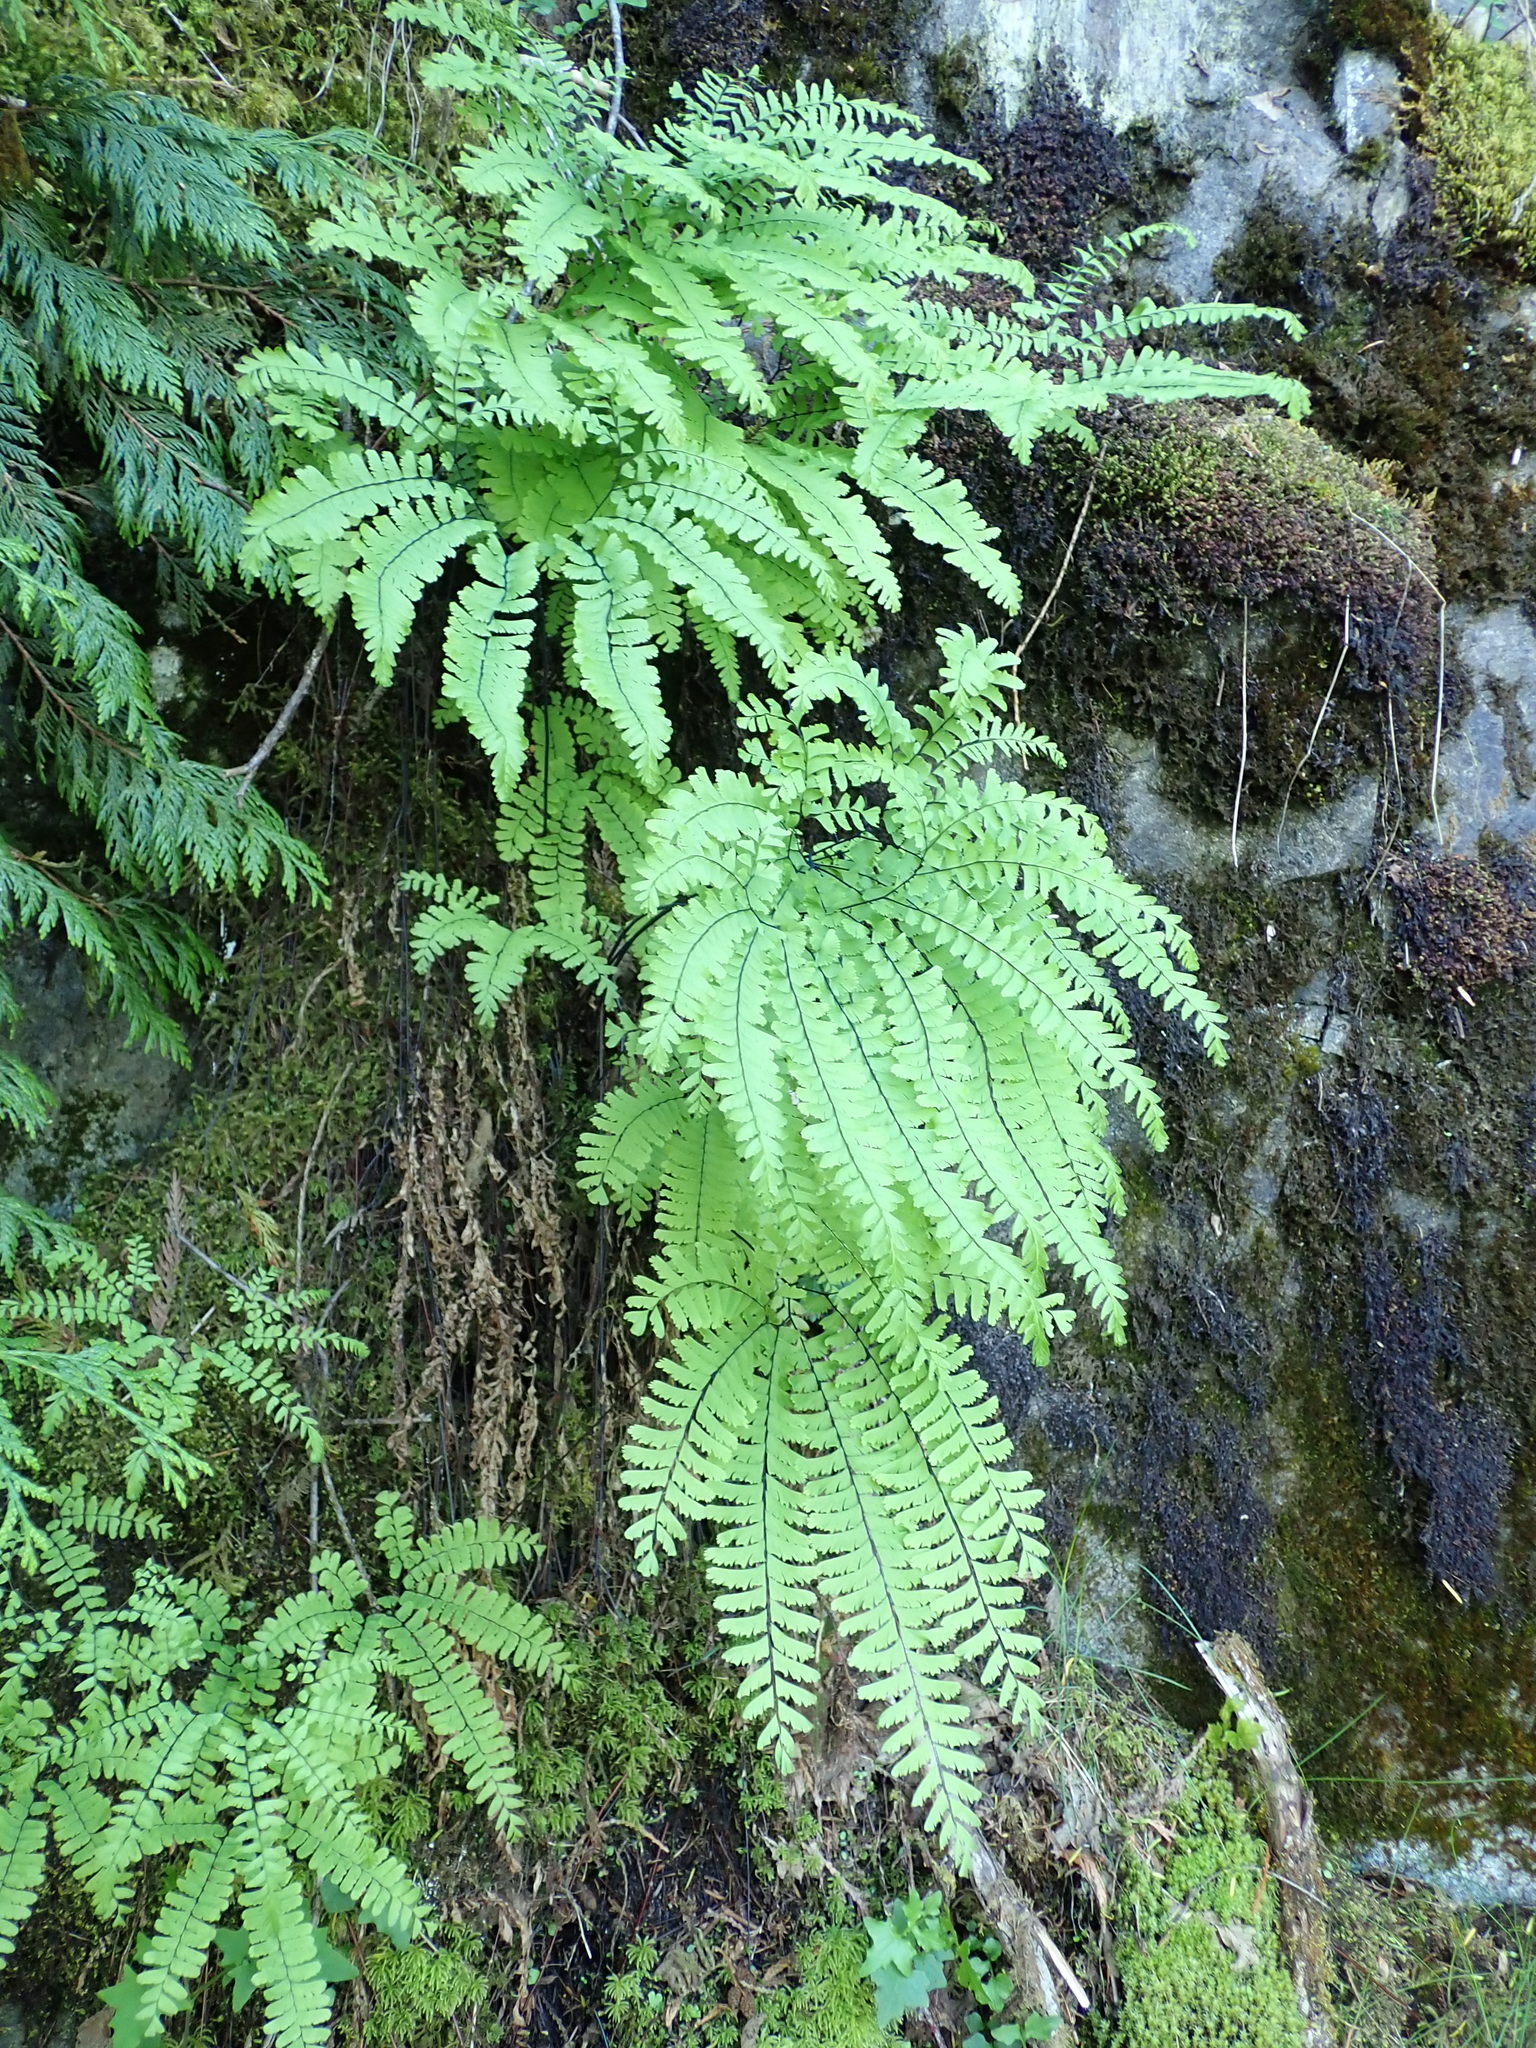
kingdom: Plantae
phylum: Tracheophyta
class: Polypodiopsida
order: Polypodiales
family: Pteridaceae
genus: Adiantum
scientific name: Adiantum aleuticum
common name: Aleutian maidenhair fern
